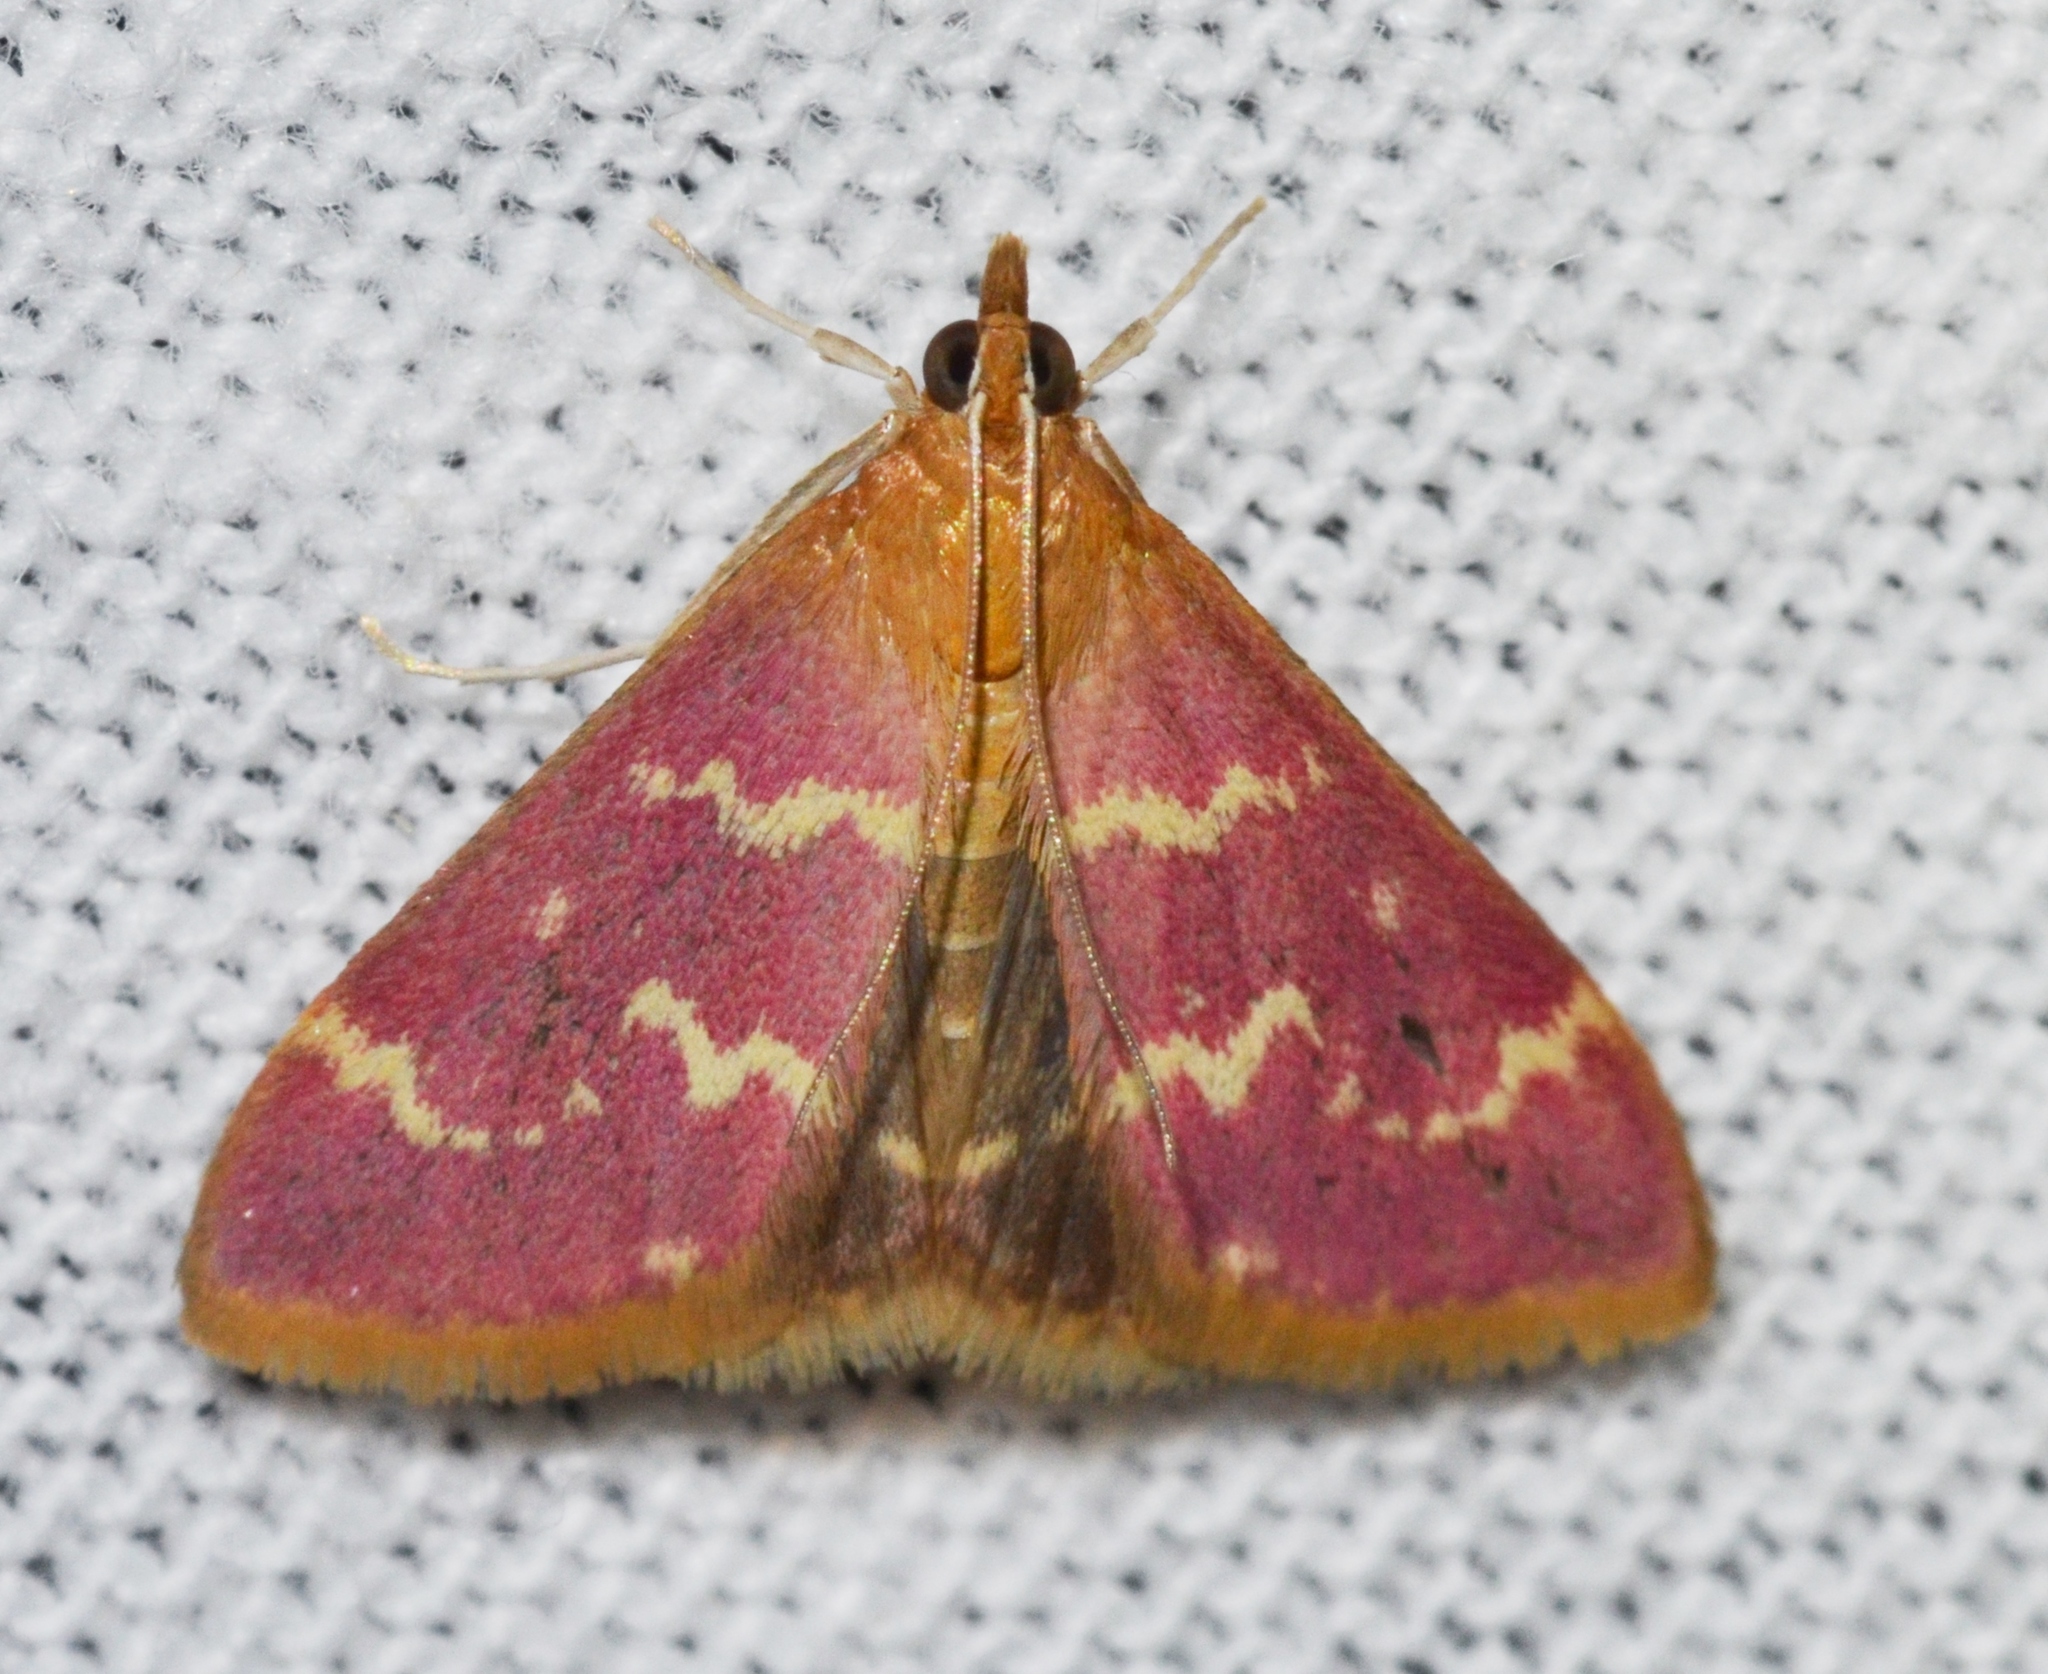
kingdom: Animalia
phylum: Arthropoda
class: Insecta
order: Lepidoptera
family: Crambidae
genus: Pyrausta
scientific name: Pyrausta signatalis
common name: Raspberry pyrausta moth
